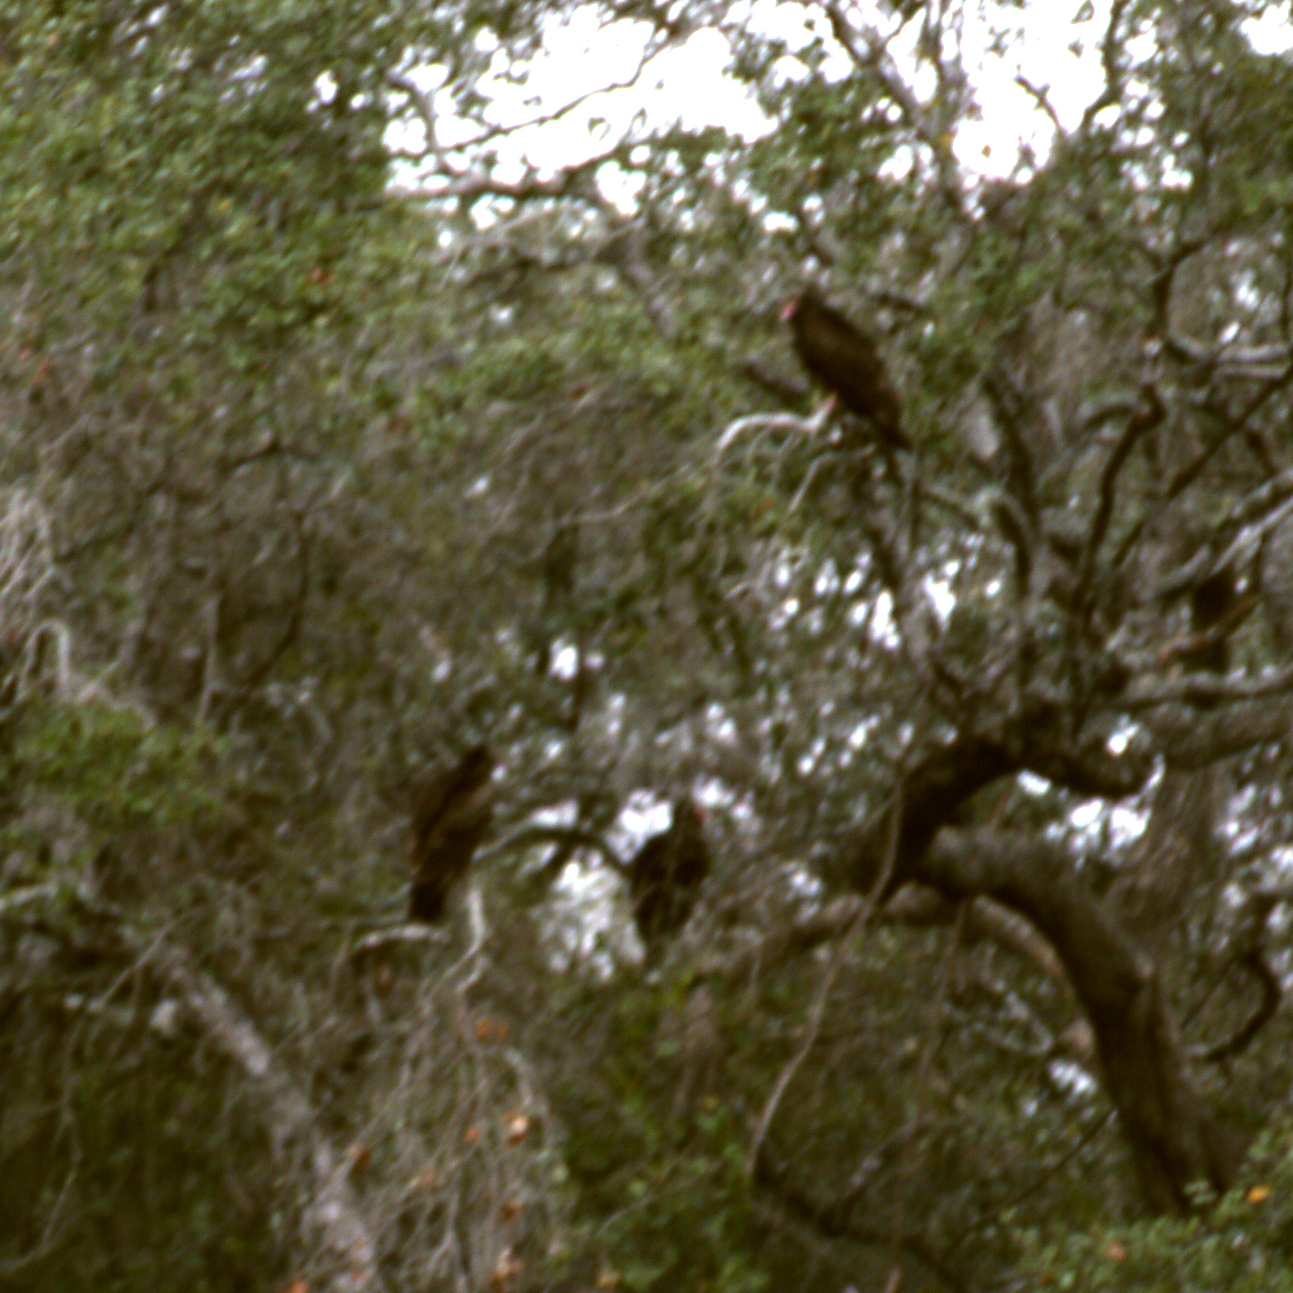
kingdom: Animalia
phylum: Chordata
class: Aves
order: Accipitriformes
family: Cathartidae
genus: Cathartes
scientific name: Cathartes aura
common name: Turkey vulture
